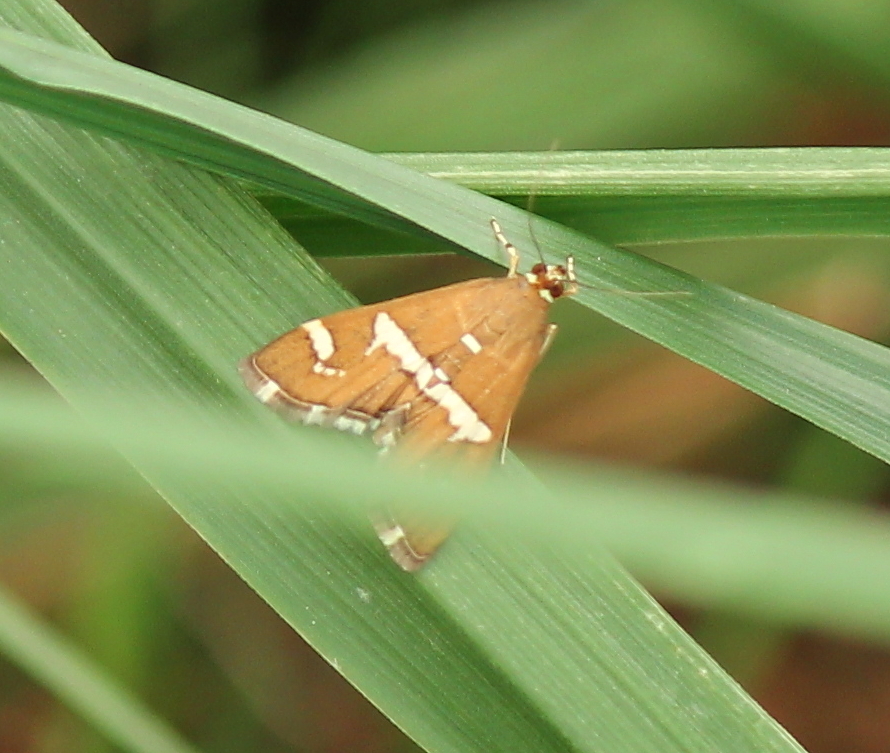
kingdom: Animalia
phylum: Arthropoda
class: Insecta
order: Lepidoptera
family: Crambidae
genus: Spoladea
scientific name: Spoladea recurvalis
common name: Beet webworm moth
